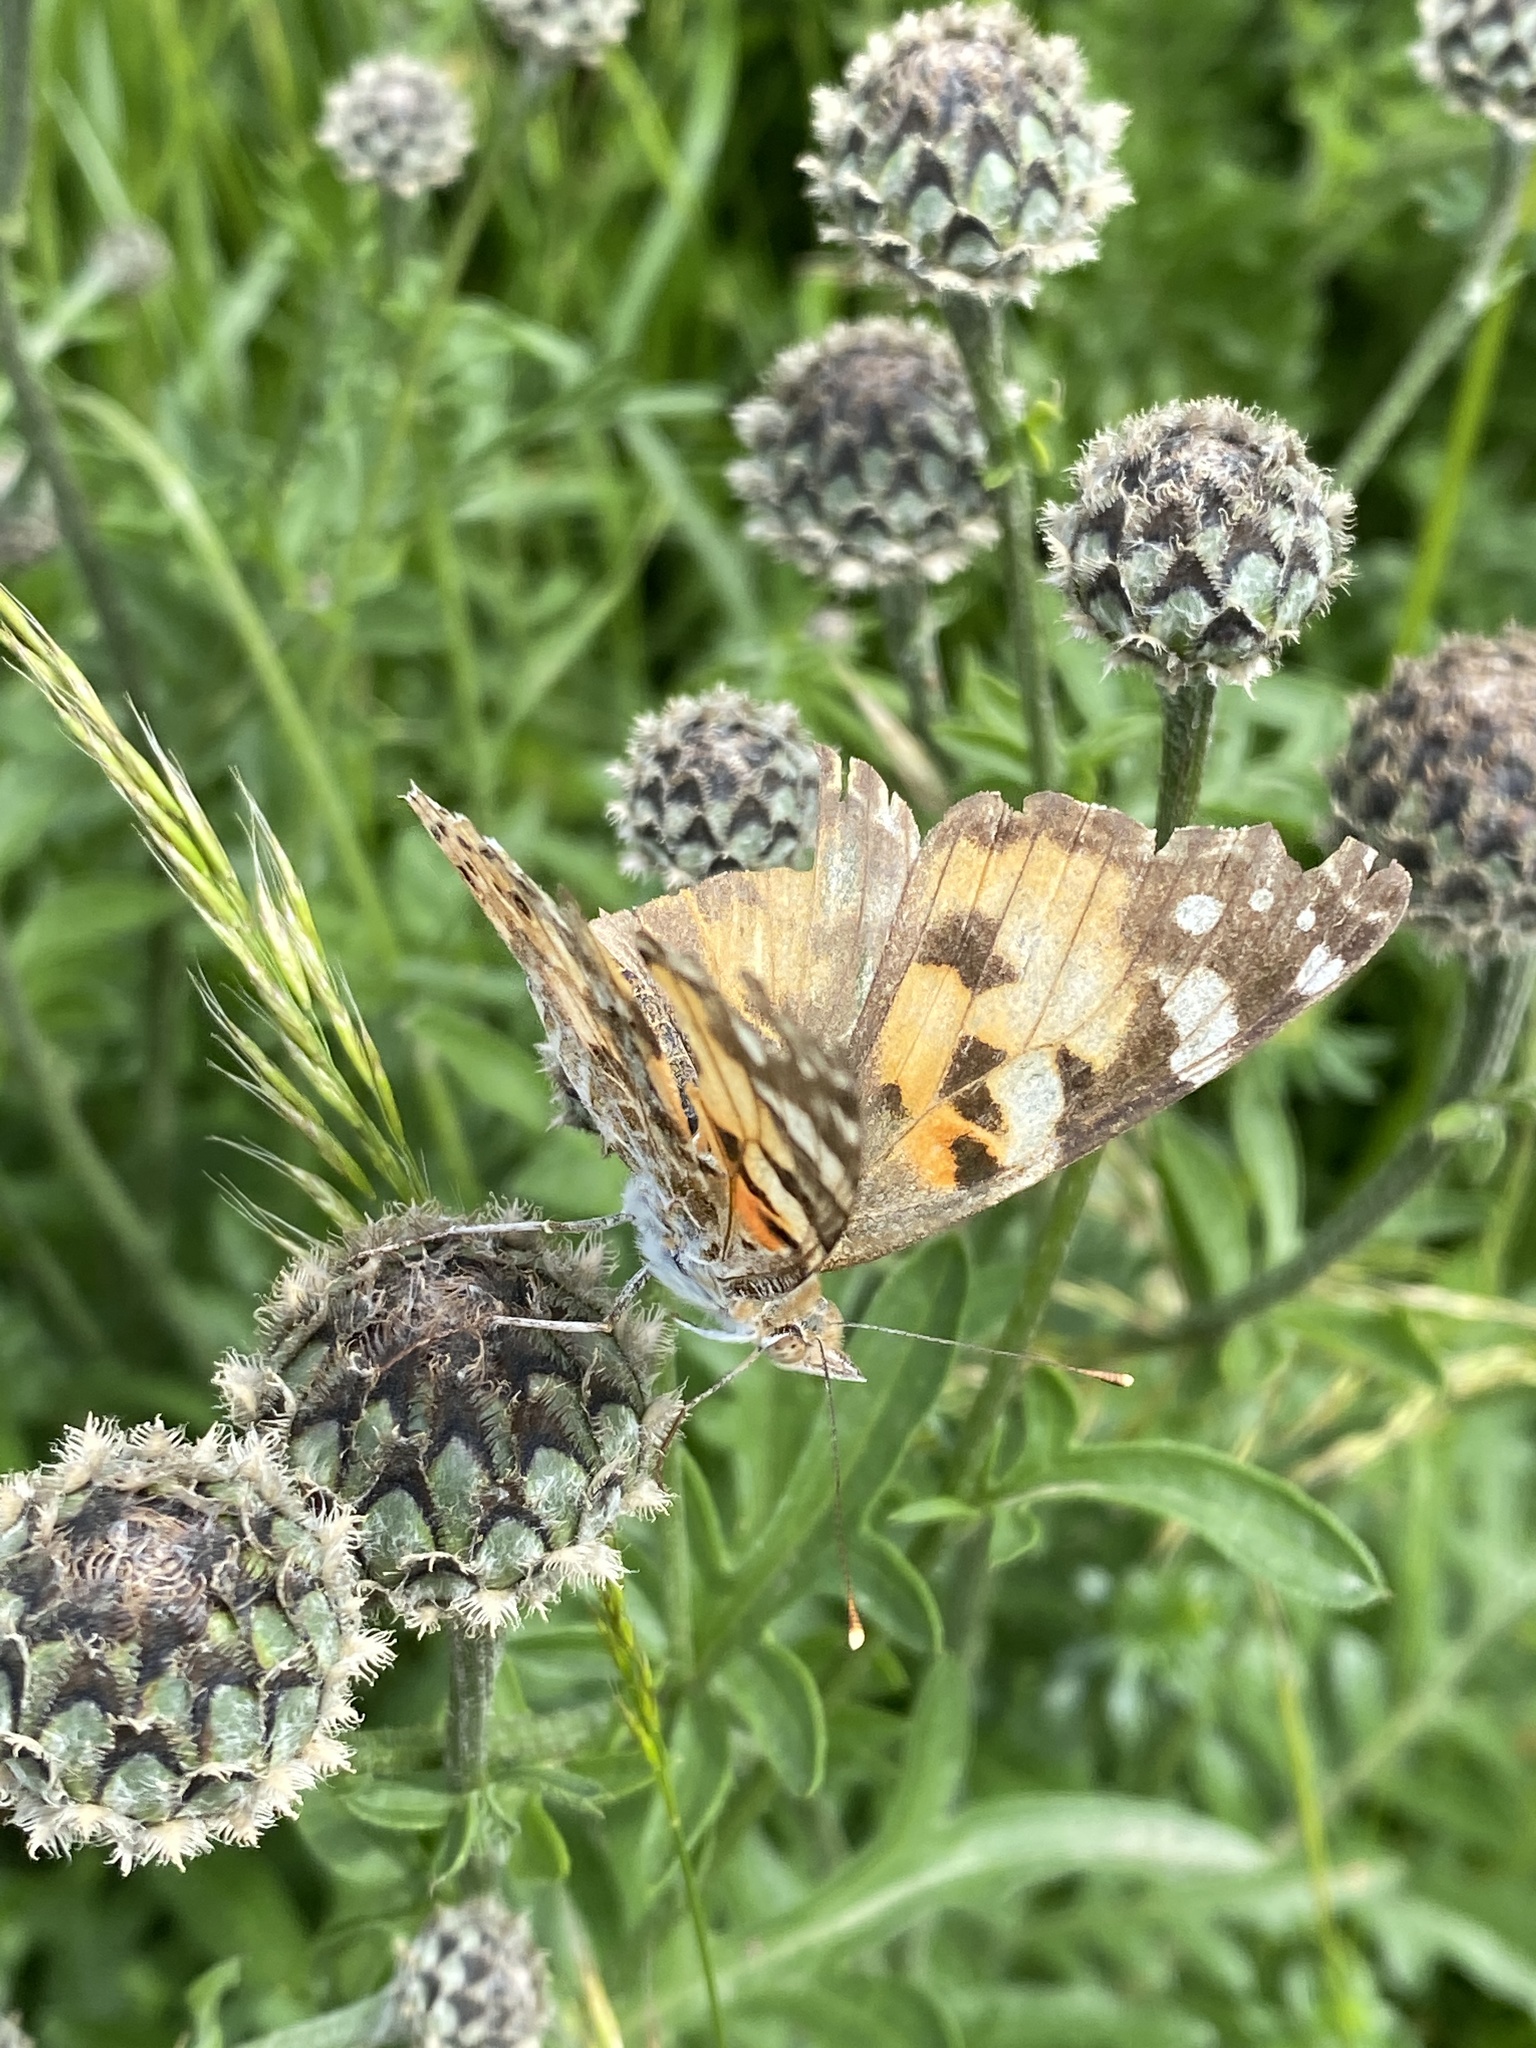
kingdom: Animalia
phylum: Arthropoda
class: Insecta
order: Lepidoptera
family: Nymphalidae
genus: Vanessa
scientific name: Vanessa cardui
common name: Painted lady
